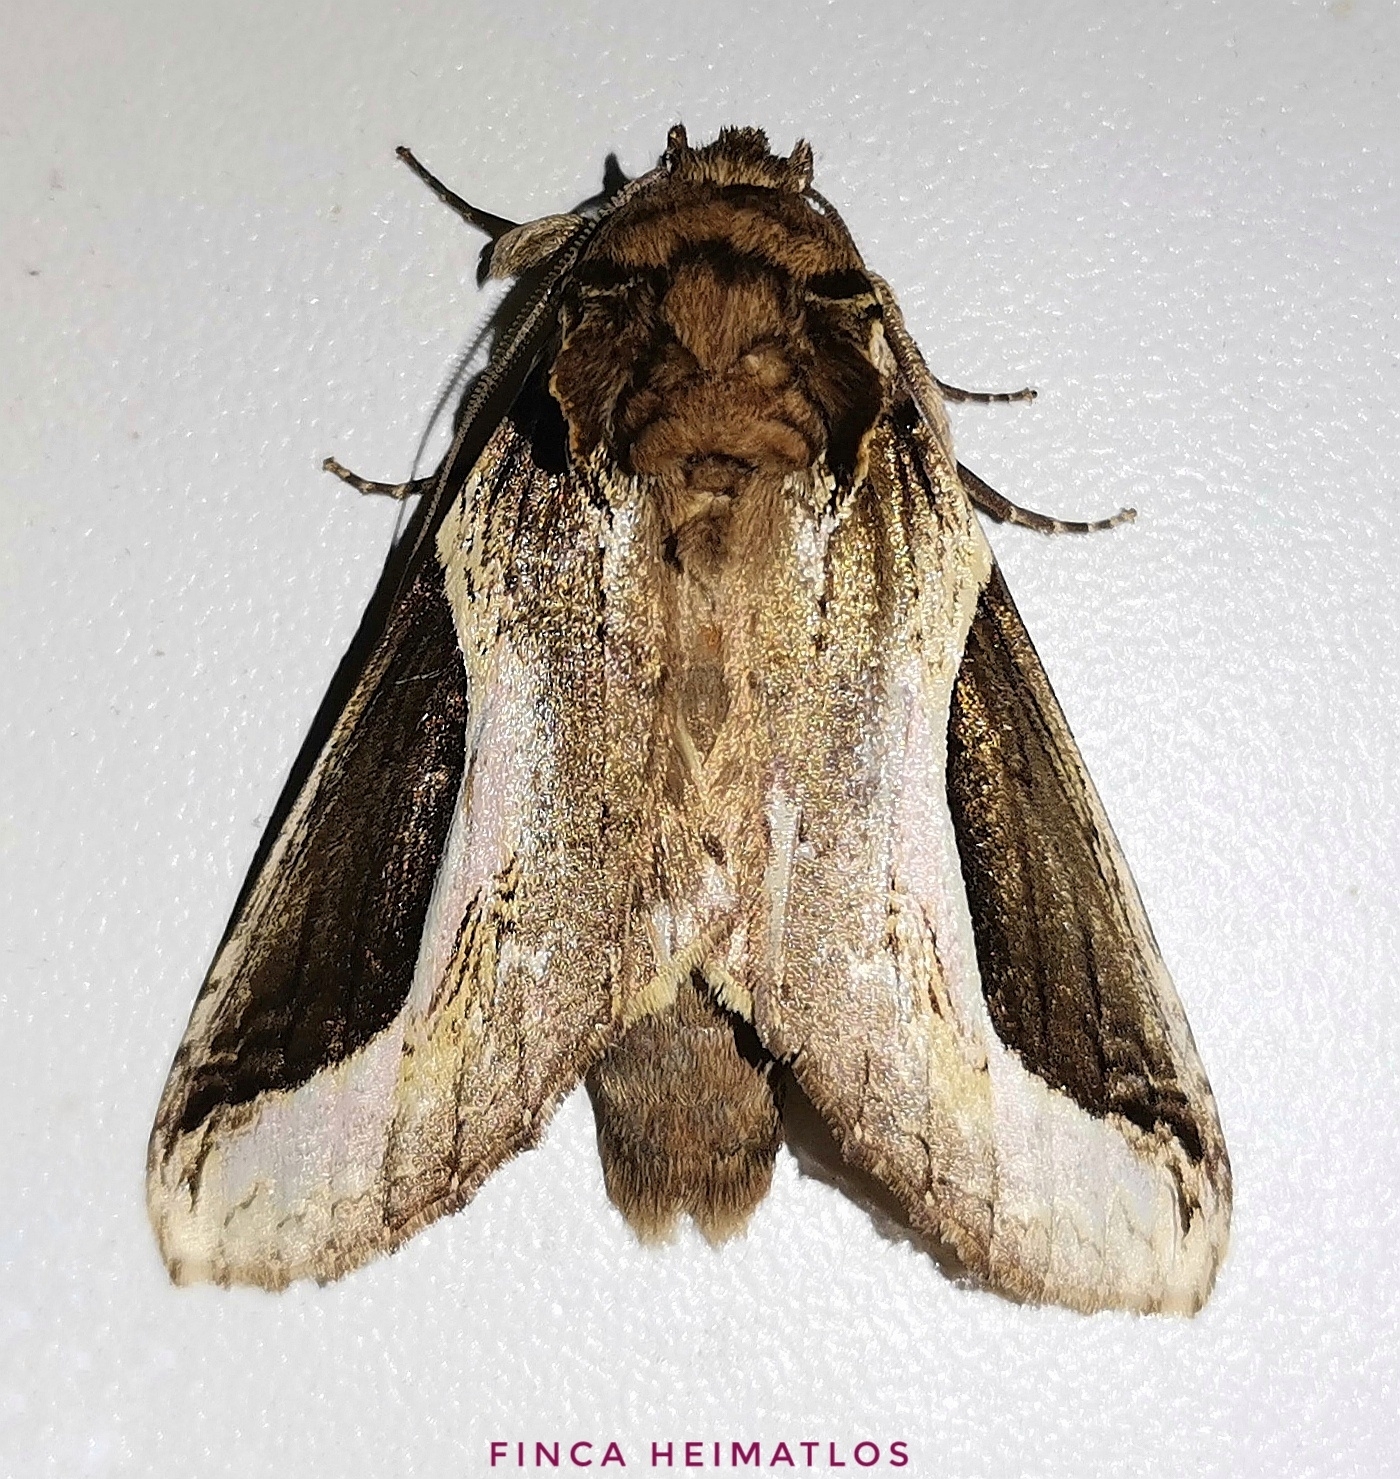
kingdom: Animalia
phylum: Arthropoda
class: Insecta
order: Lepidoptera
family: Notodontidae
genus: Rhuda
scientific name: Rhuda focula
